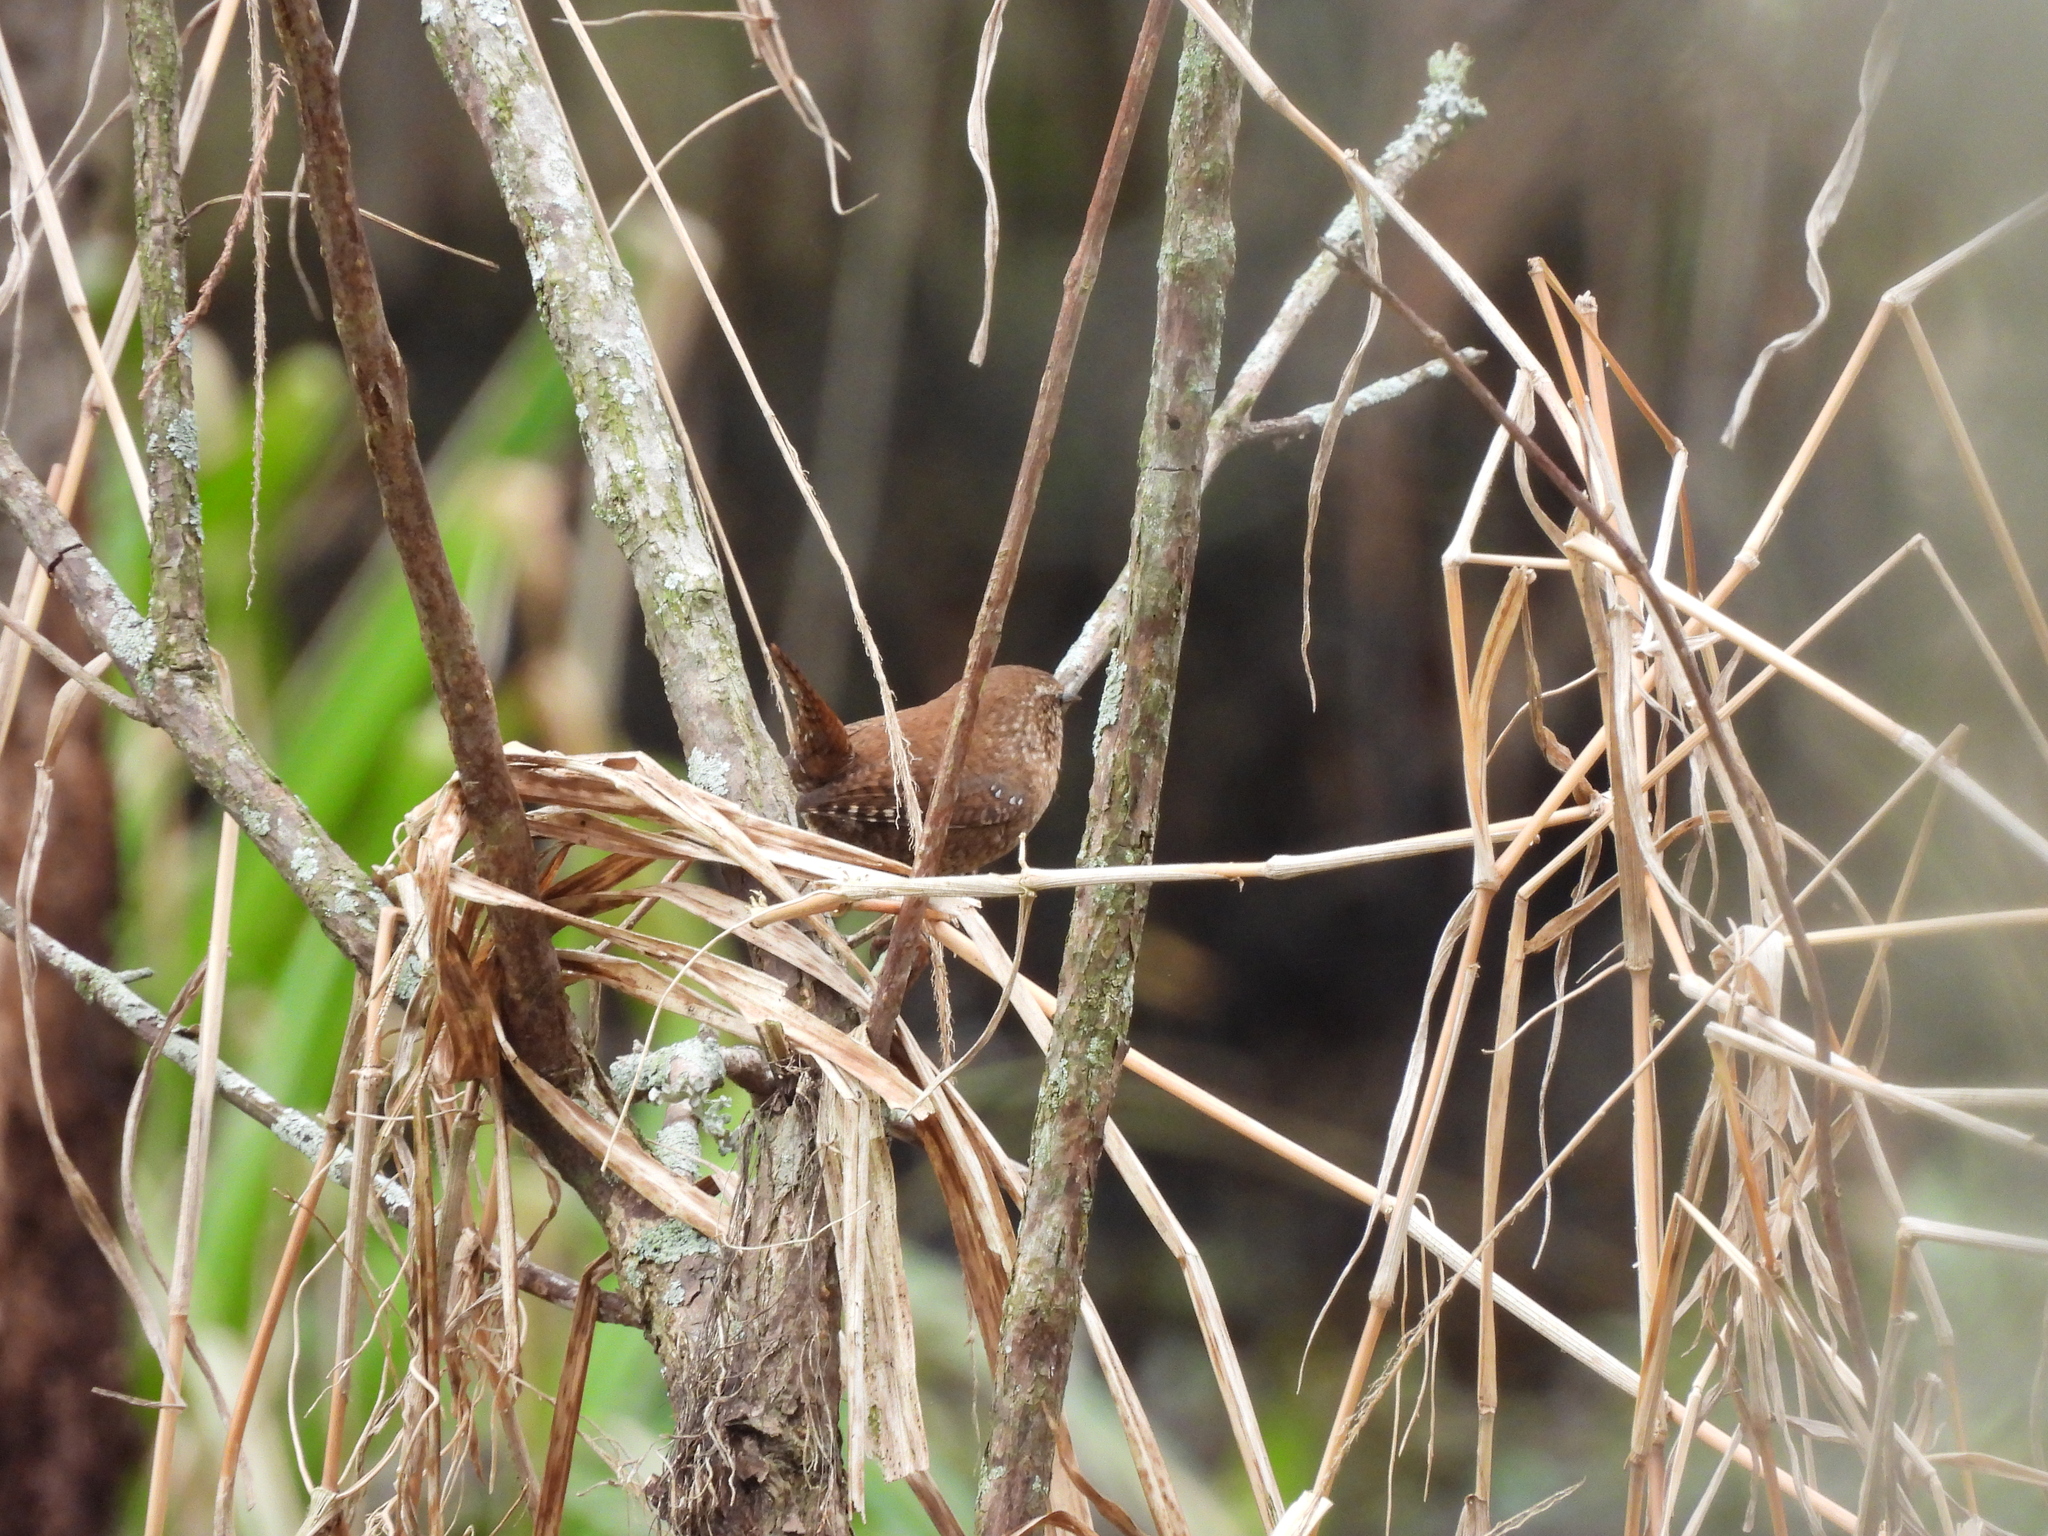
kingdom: Animalia
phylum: Chordata
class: Aves
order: Passeriformes
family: Troglodytidae
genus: Troglodytes
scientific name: Troglodytes hiemalis
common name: Winter wren
